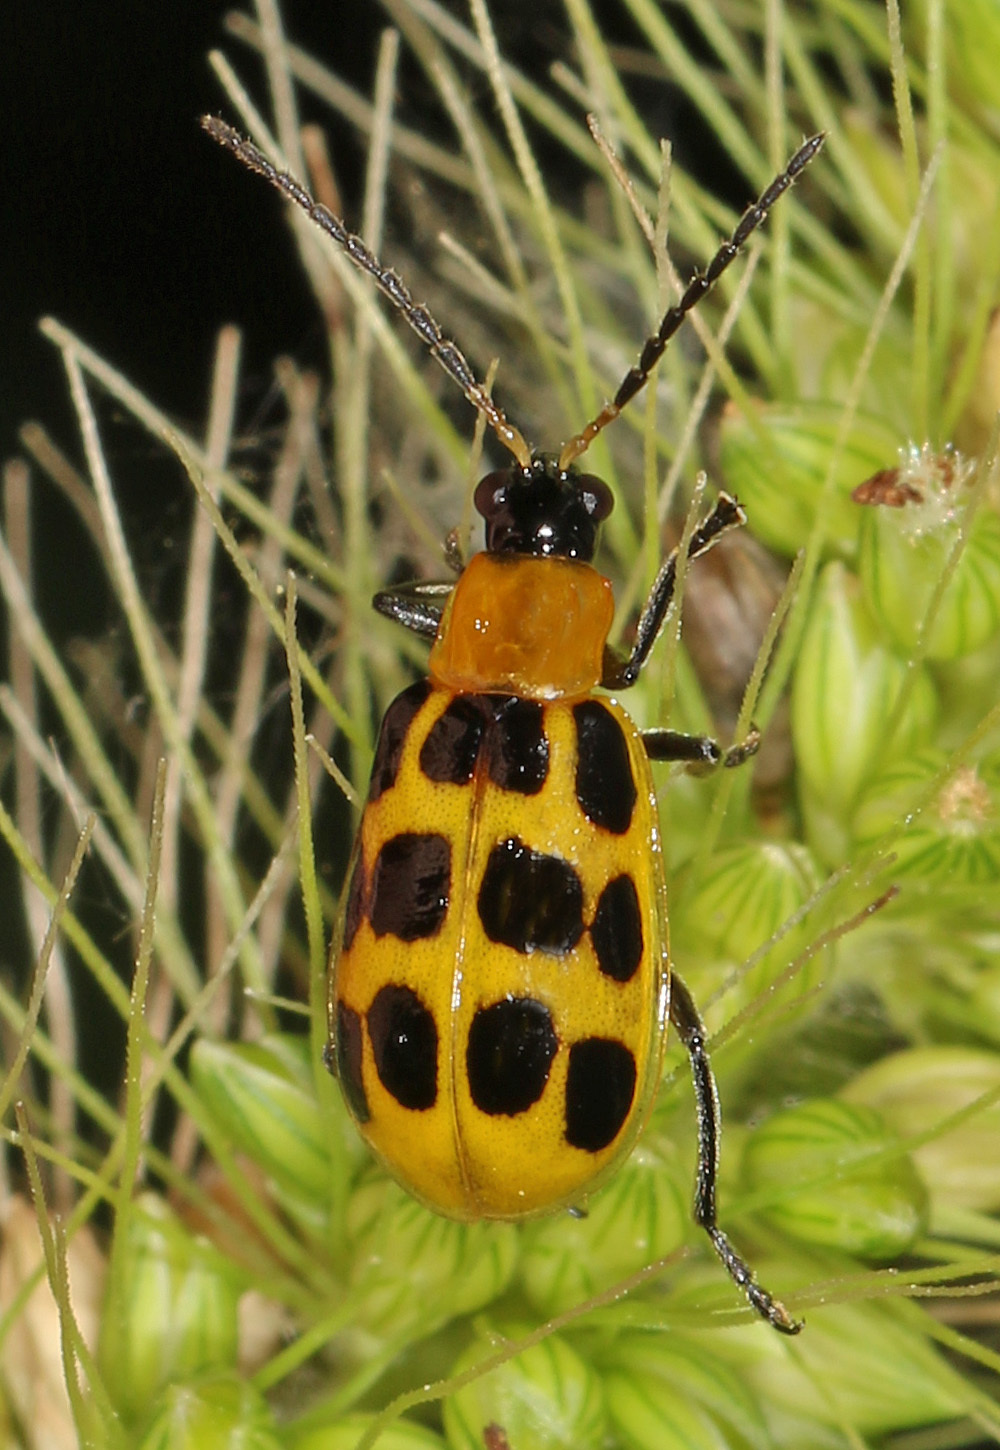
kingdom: Animalia
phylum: Arthropoda
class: Insecta
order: Coleoptera
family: Chrysomelidae
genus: Diabrotica
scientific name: Diabrotica undecimpunctata
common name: Spotted cucumber beetle
